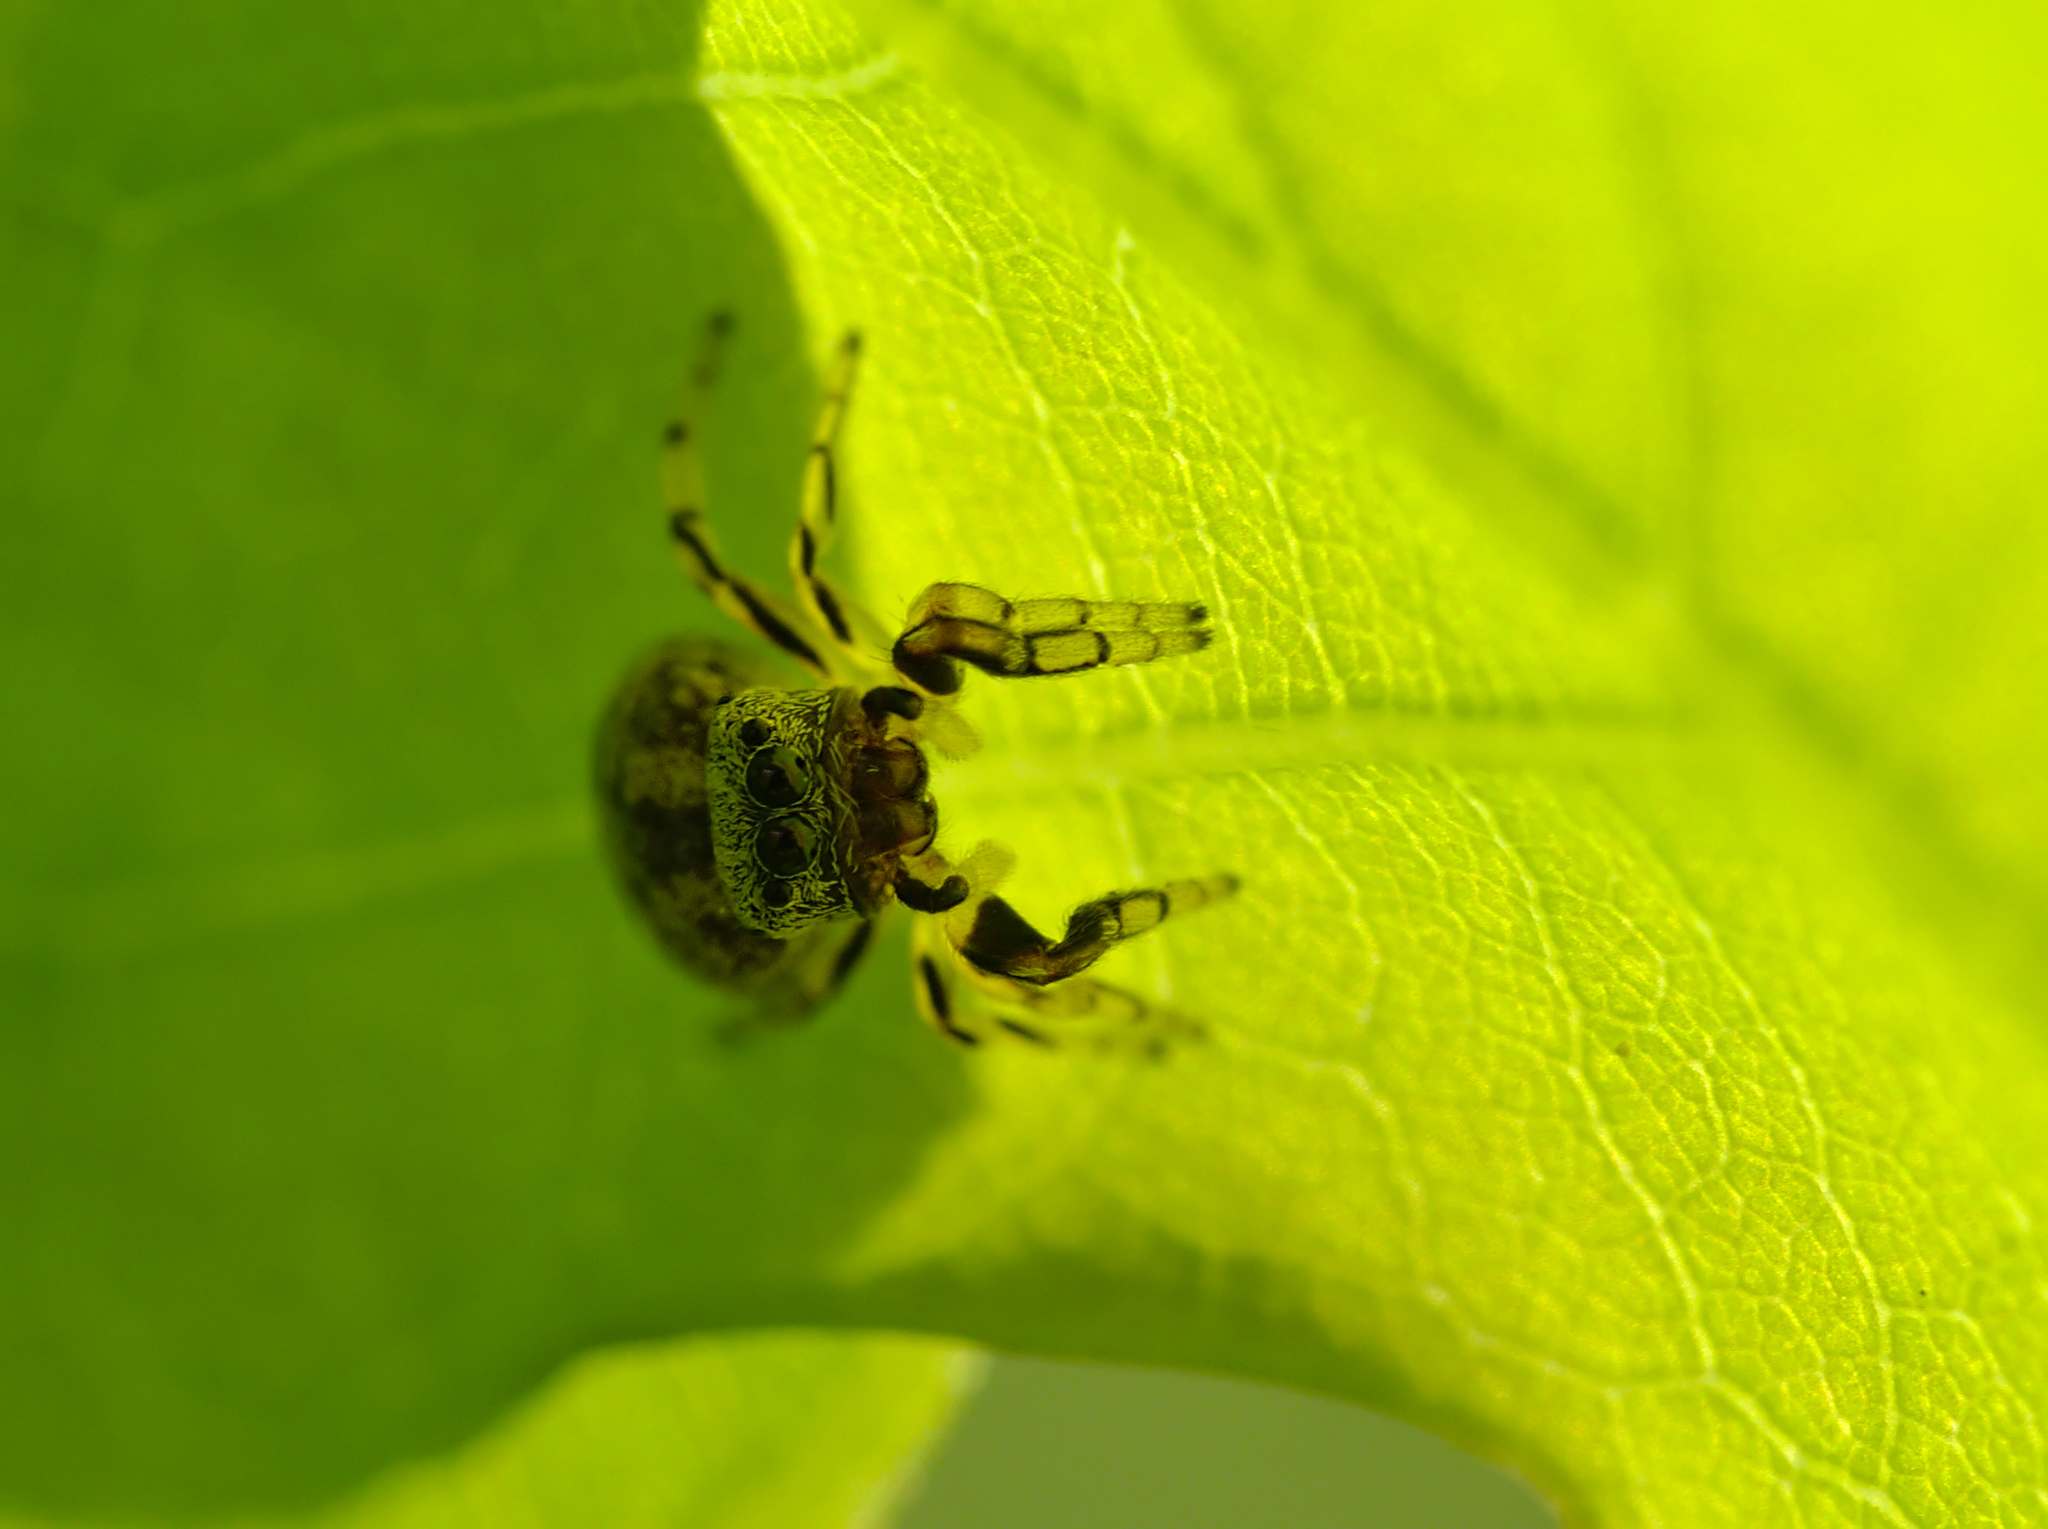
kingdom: Animalia
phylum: Arthropoda
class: Arachnida
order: Araneae
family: Salticidae
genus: Ballus
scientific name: Ballus chalybeius
